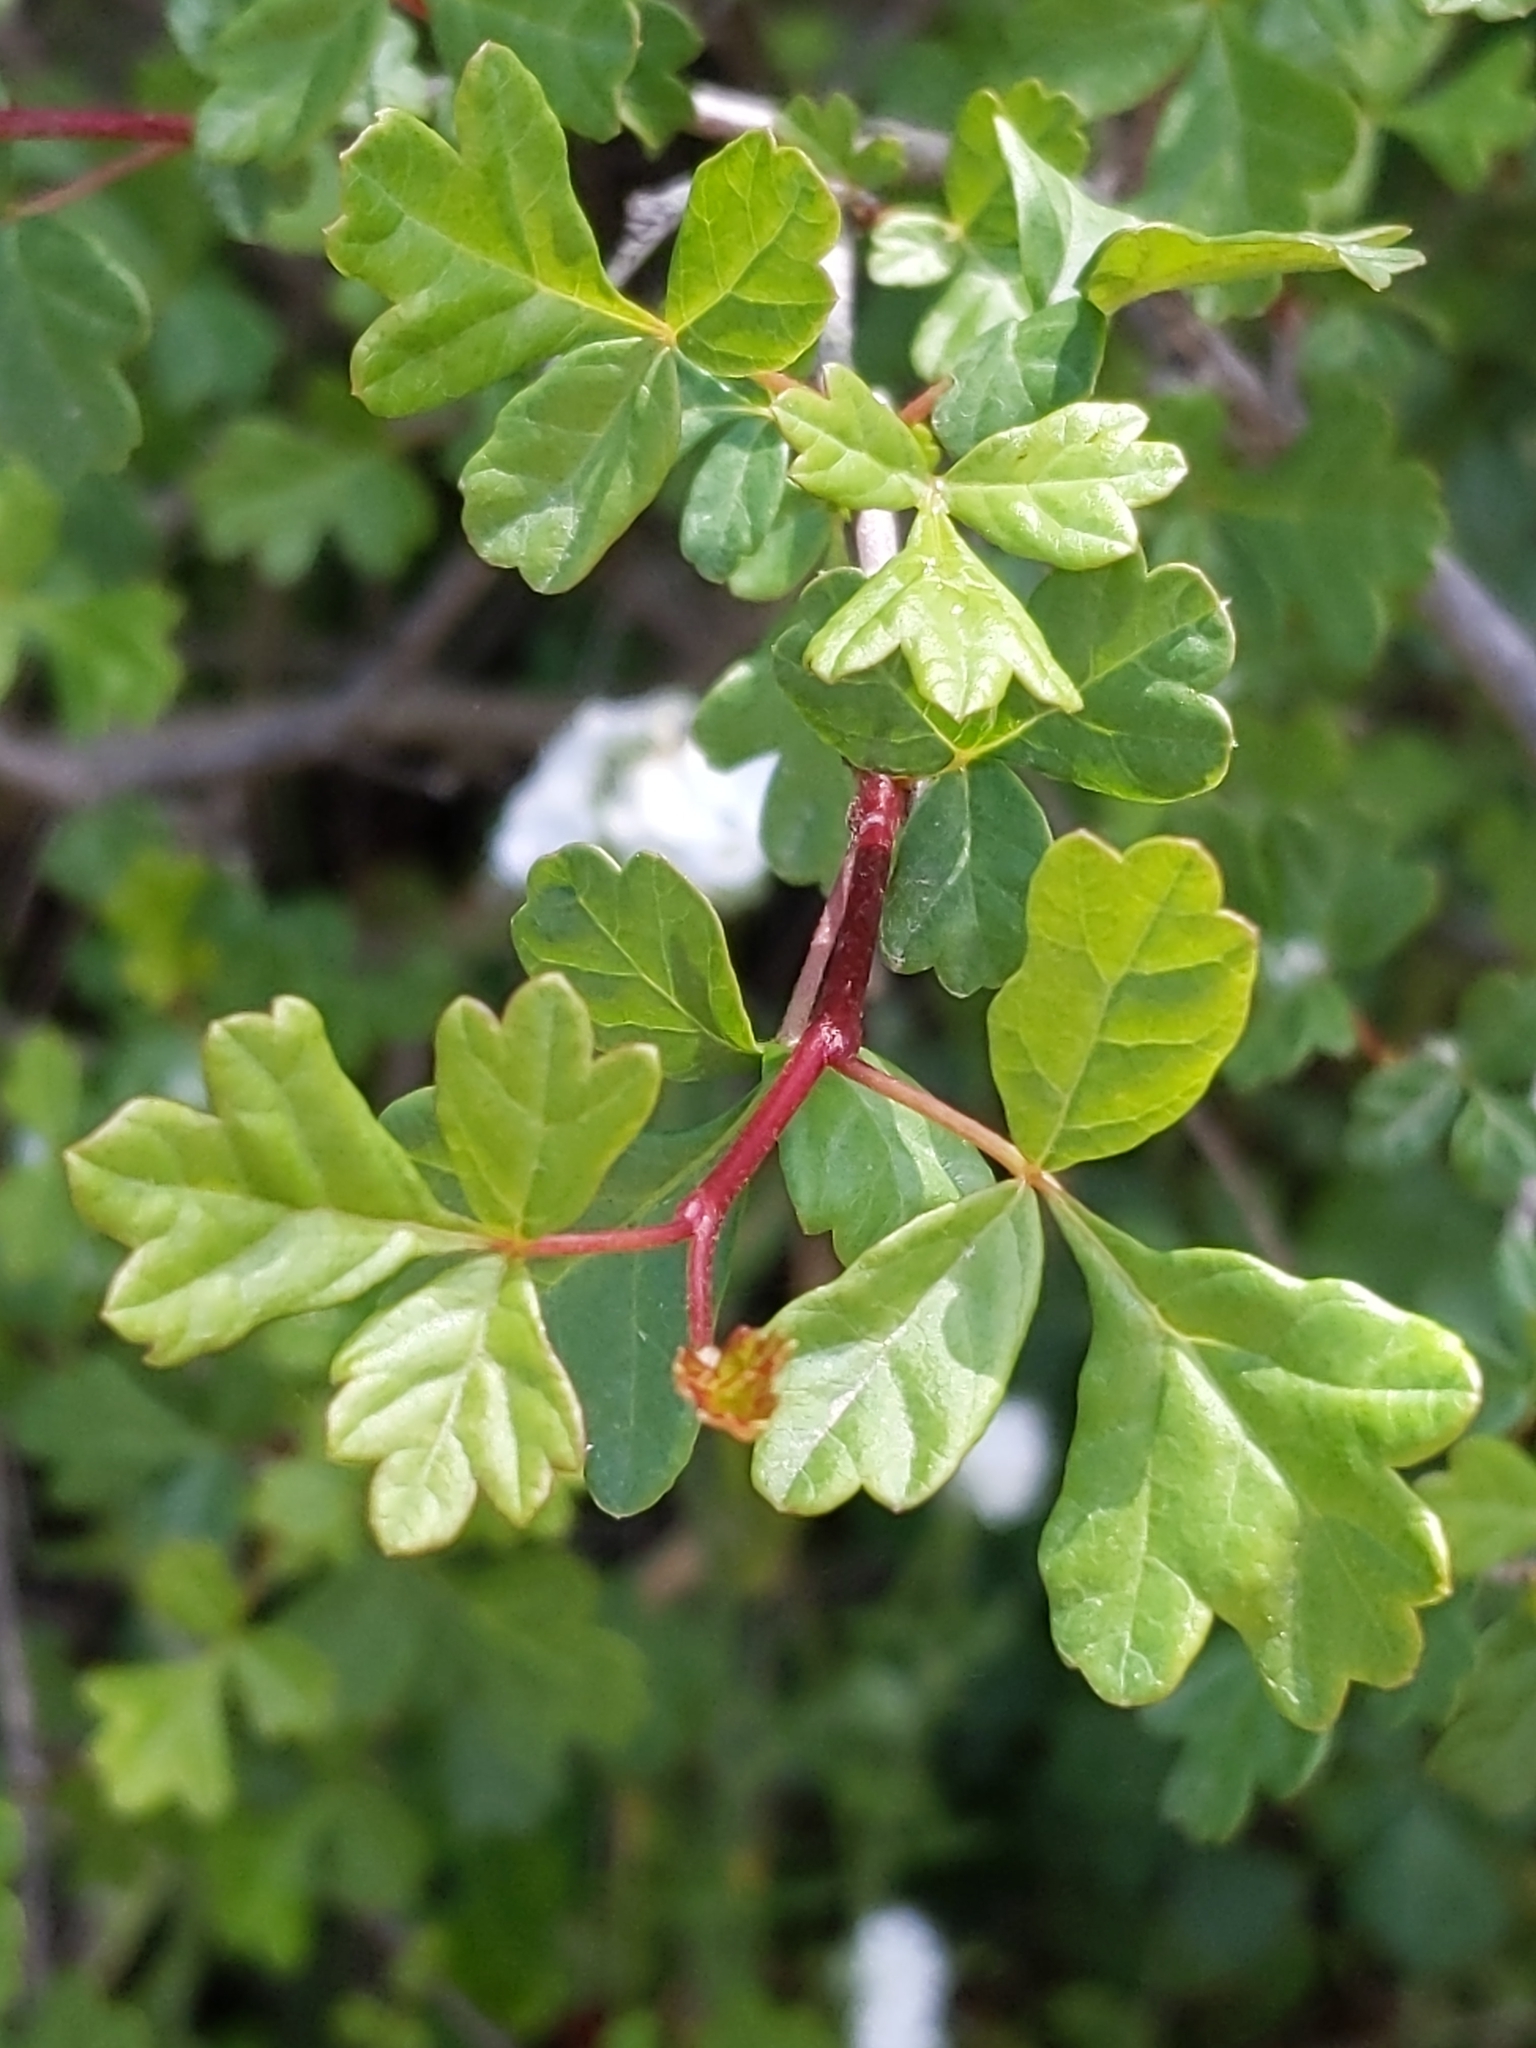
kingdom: Plantae
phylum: Tracheophyta
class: Magnoliopsida
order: Sapindales
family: Anacardiaceae
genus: Rhus
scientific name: Rhus aromatica
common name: Aromatic sumac
